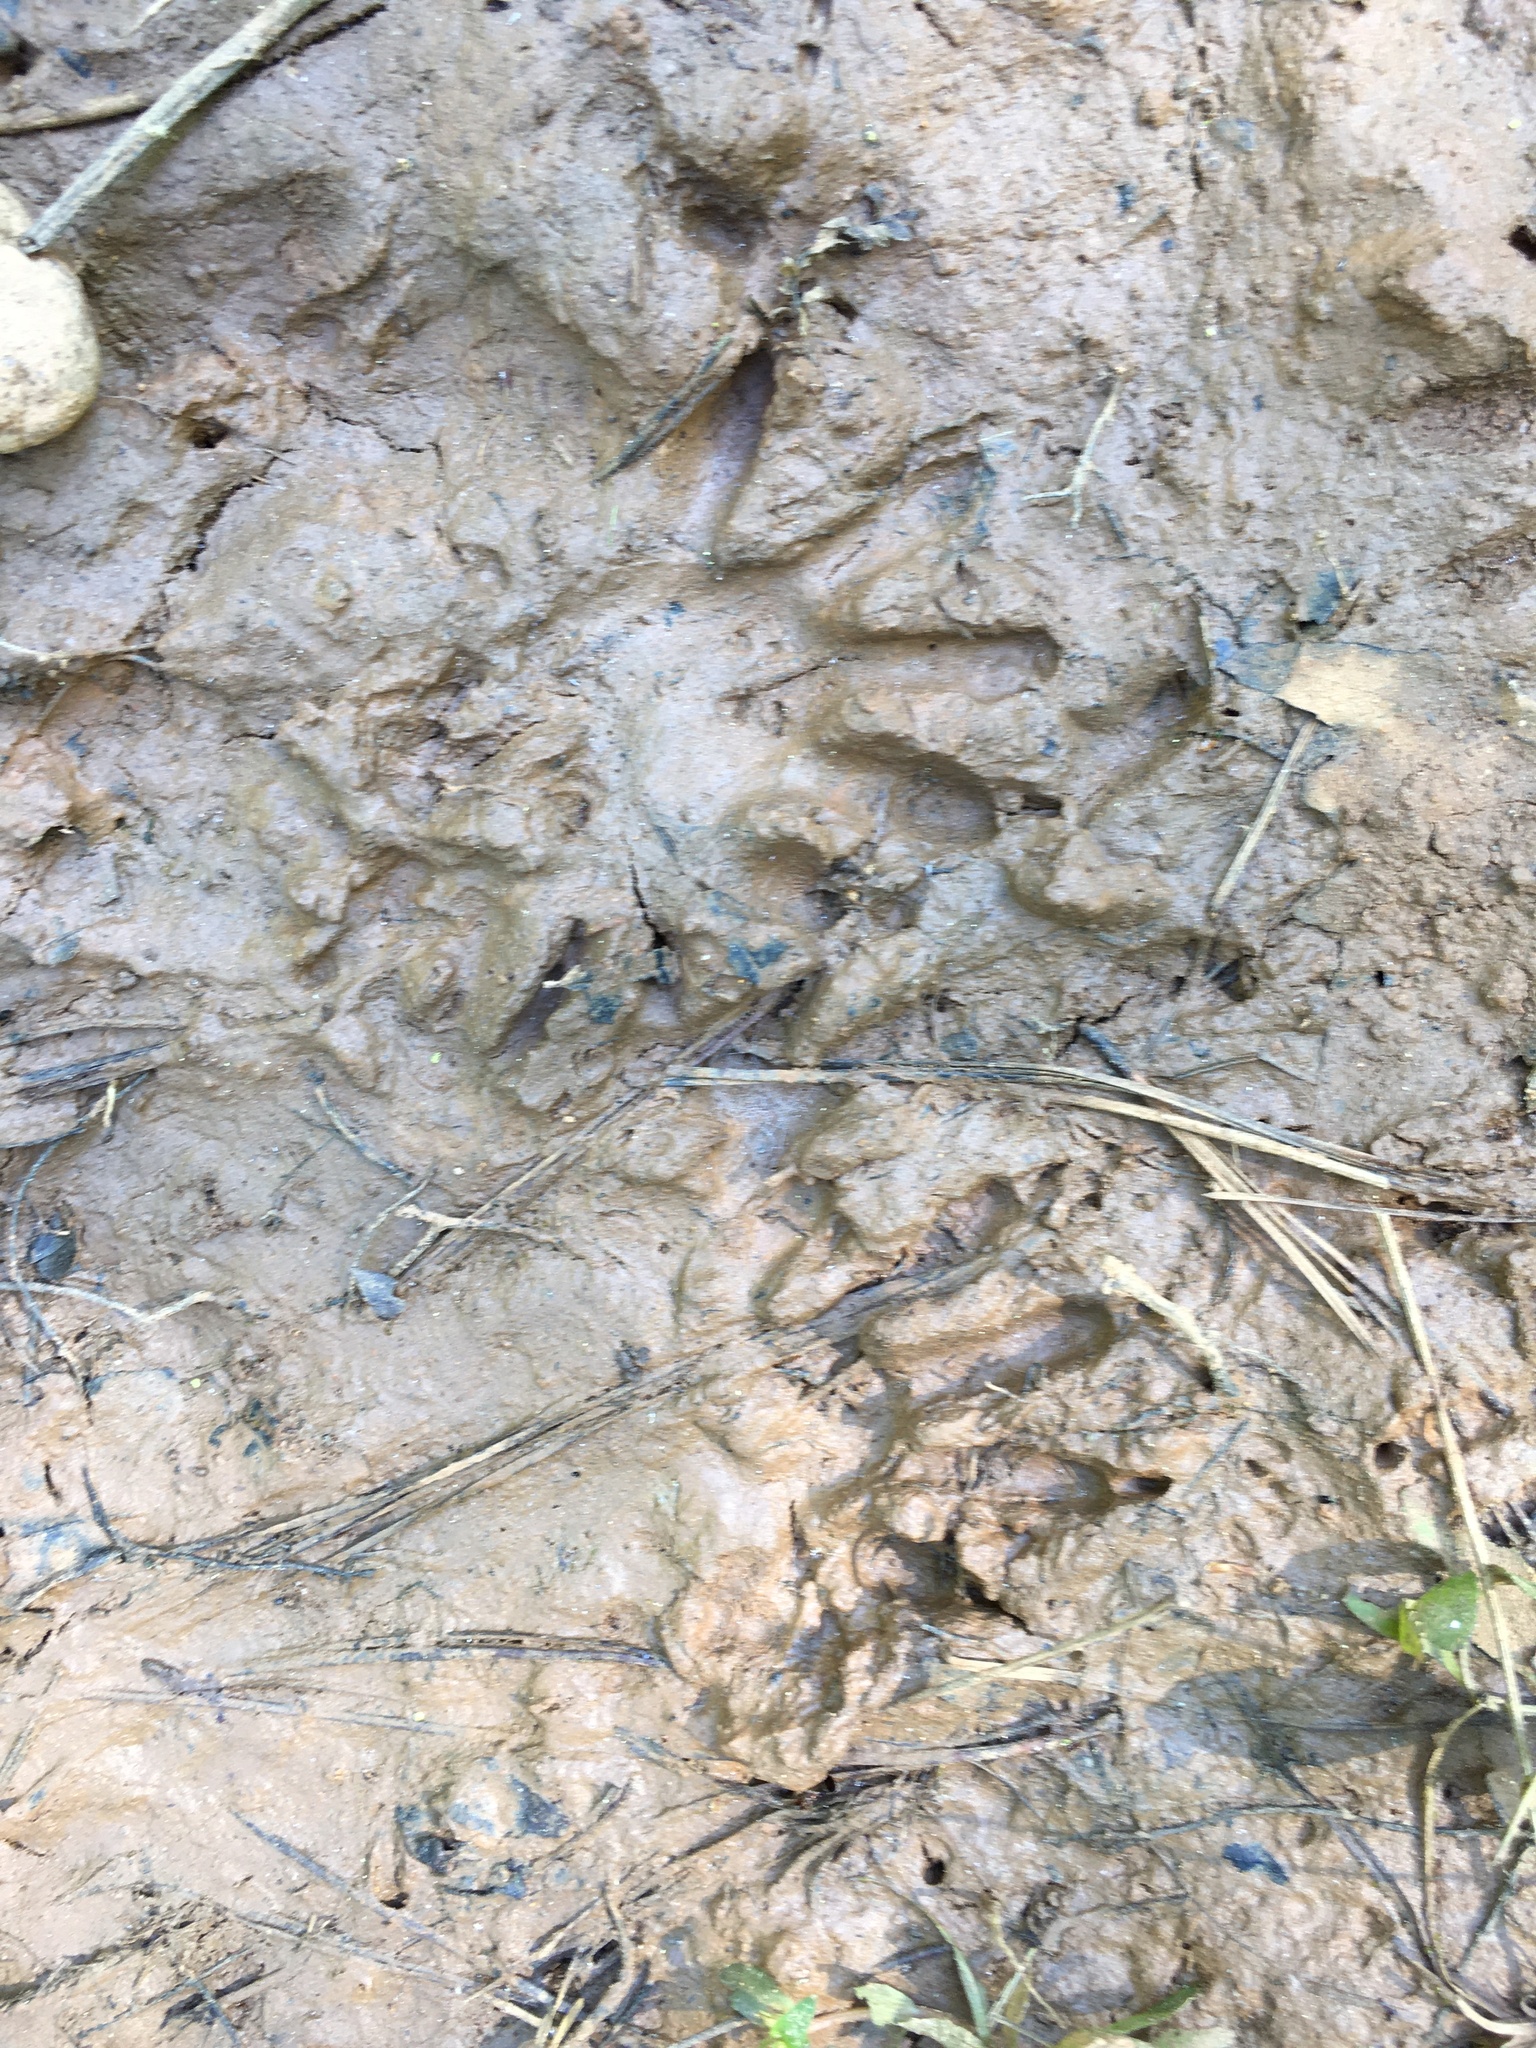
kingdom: Animalia
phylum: Chordata
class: Mammalia
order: Carnivora
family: Procyonidae
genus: Procyon
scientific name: Procyon lotor
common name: Raccoon
